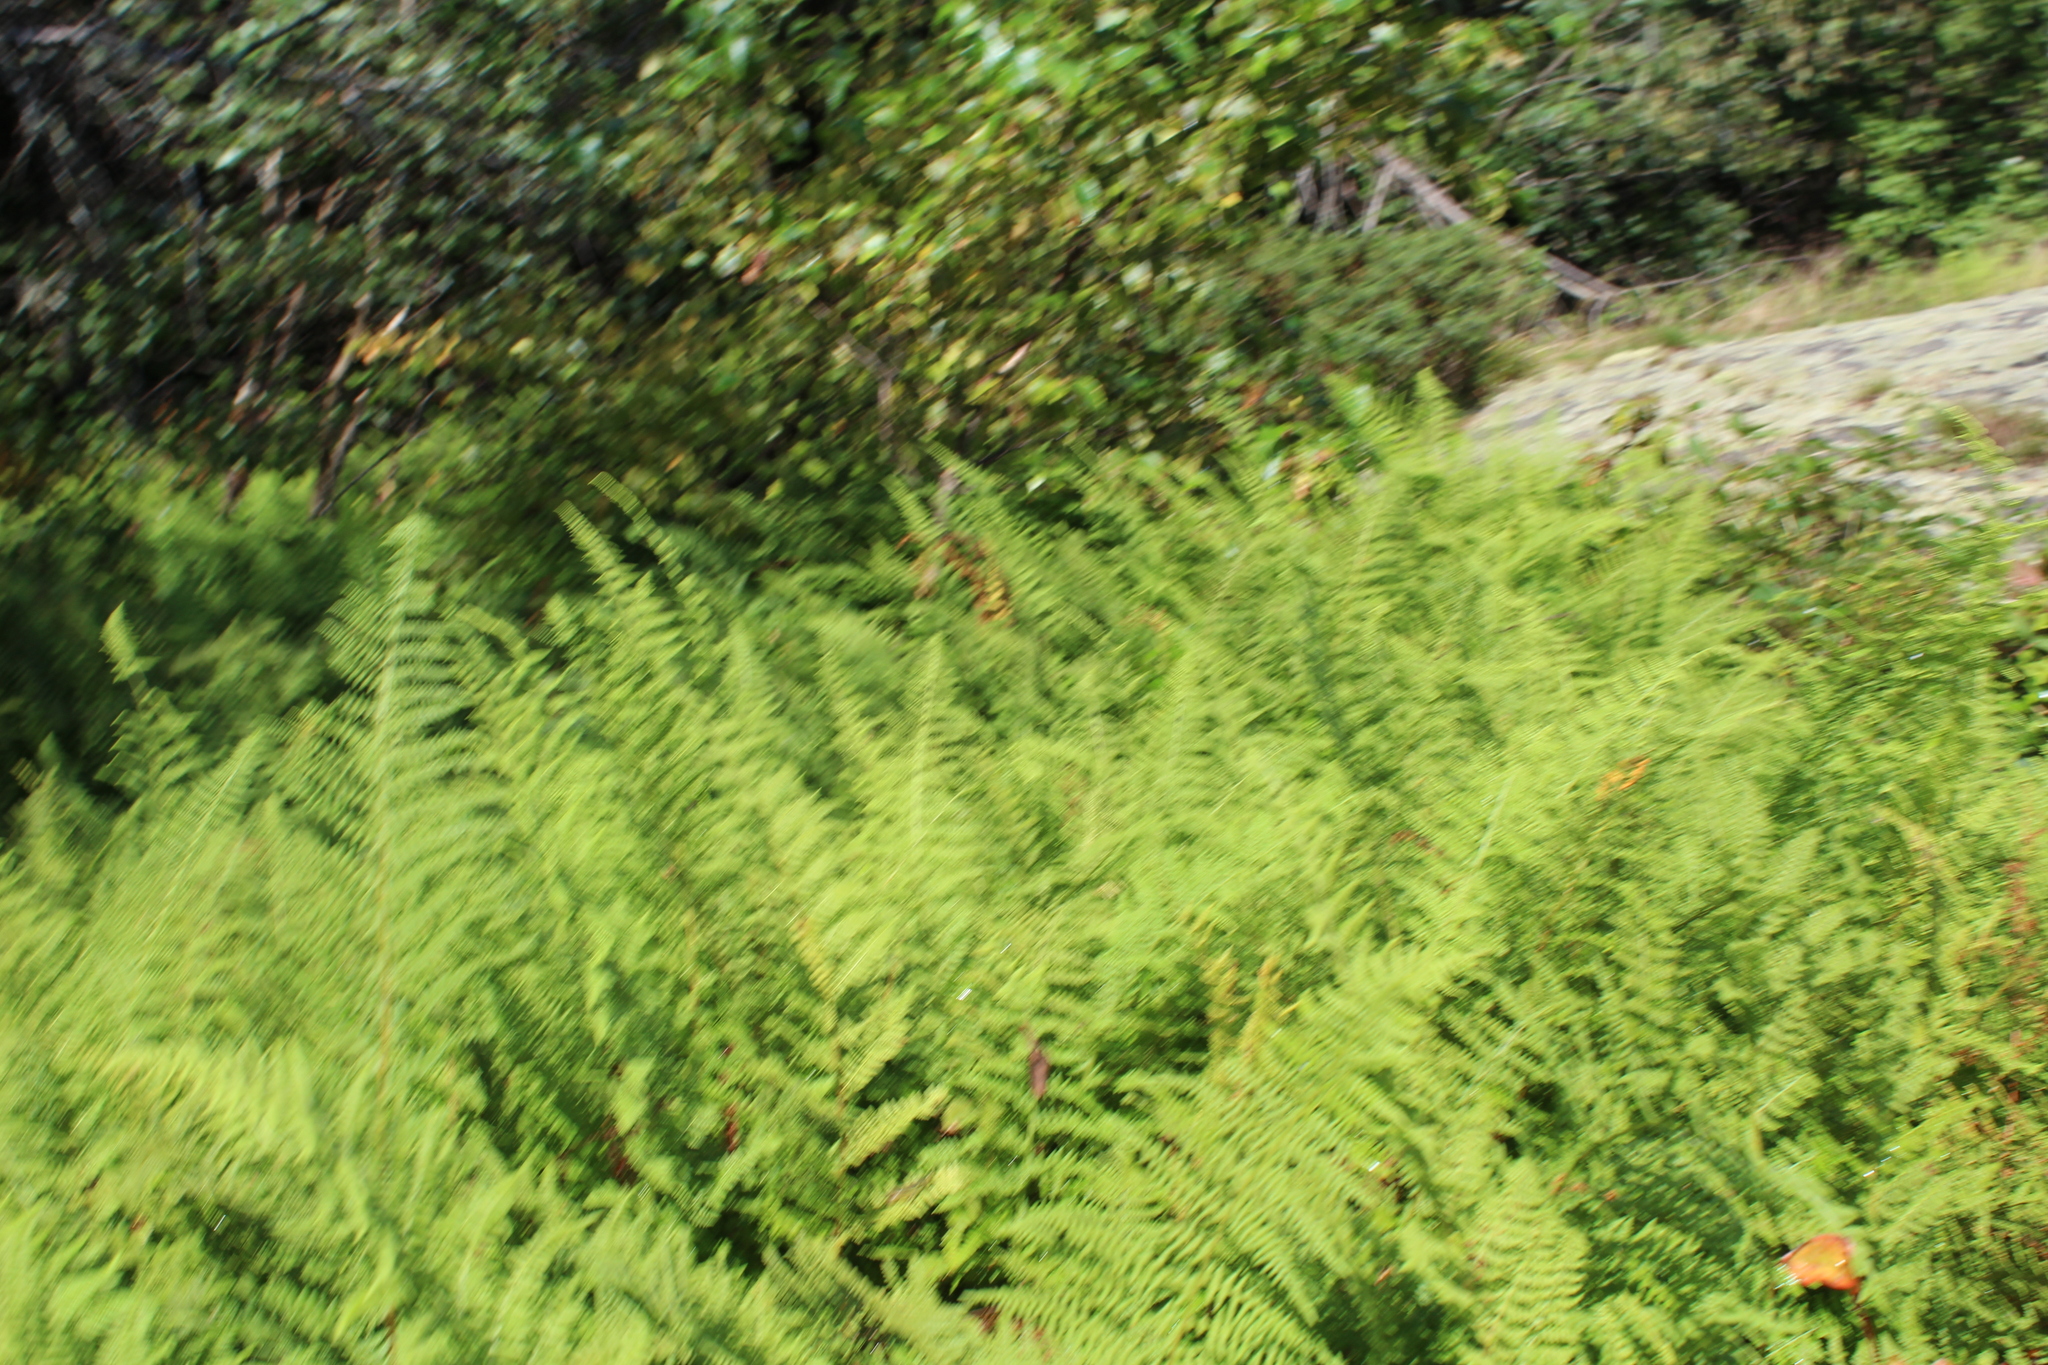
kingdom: Plantae
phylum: Tracheophyta
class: Polypodiopsida
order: Polypodiales
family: Dennstaedtiaceae
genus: Sitobolium
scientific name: Sitobolium punctilobum
